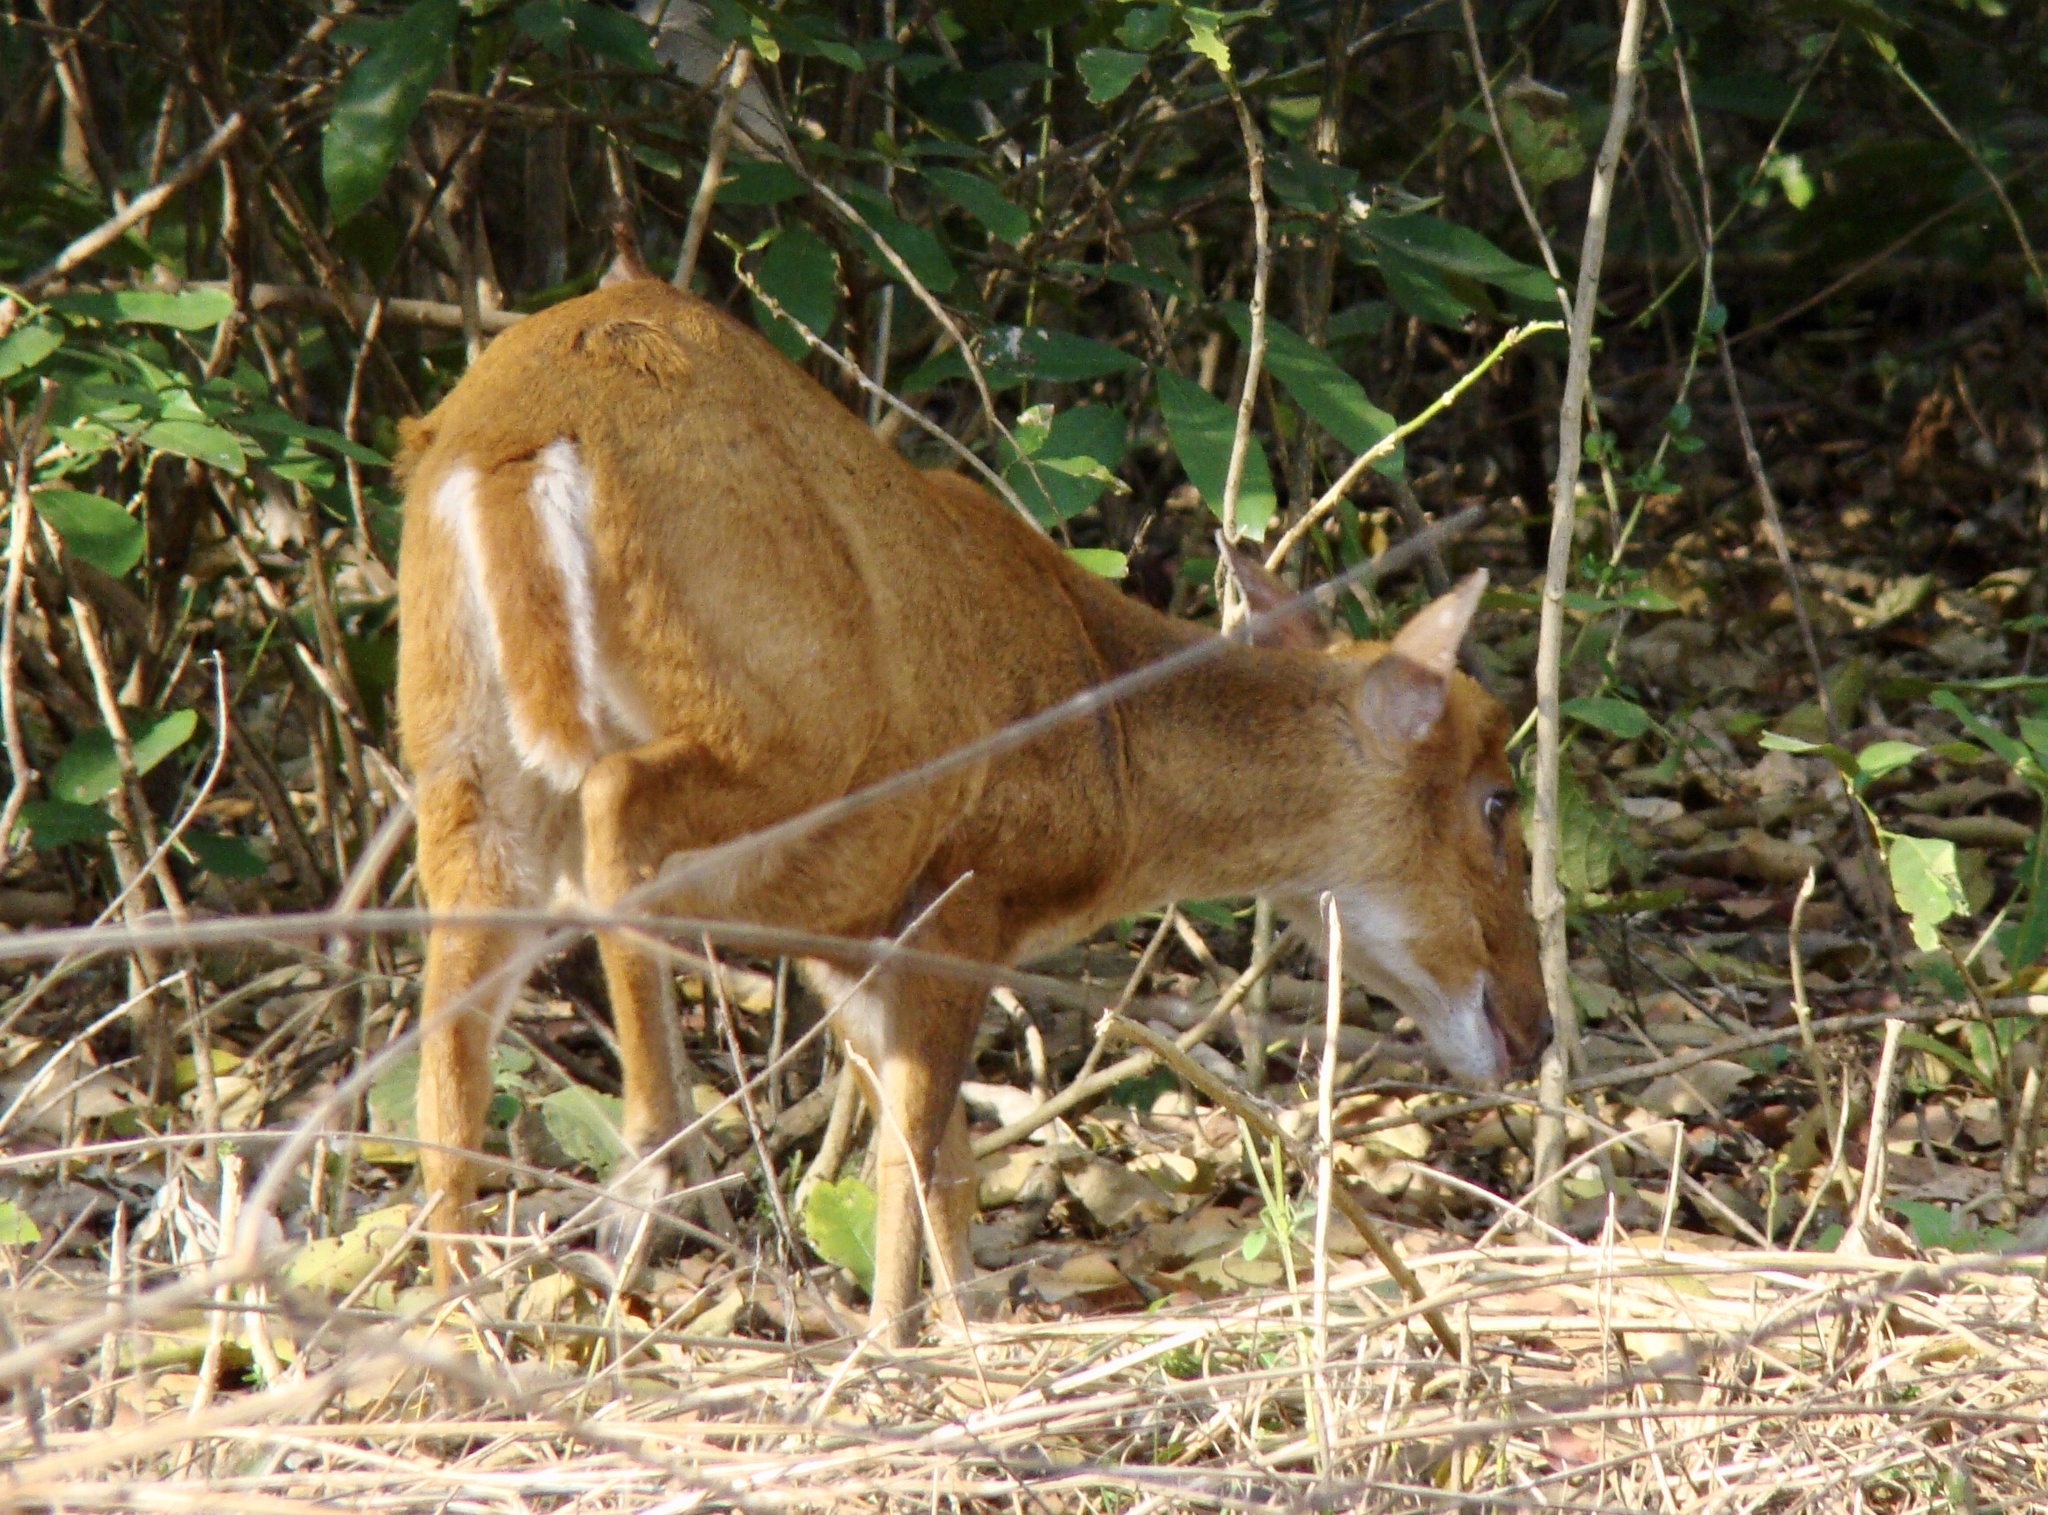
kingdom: Animalia
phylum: Chordata
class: Mammalia
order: Artiodactyla
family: Cervidae
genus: Muntiacus
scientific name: Muntiacus muntjak
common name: Indian muntjac
